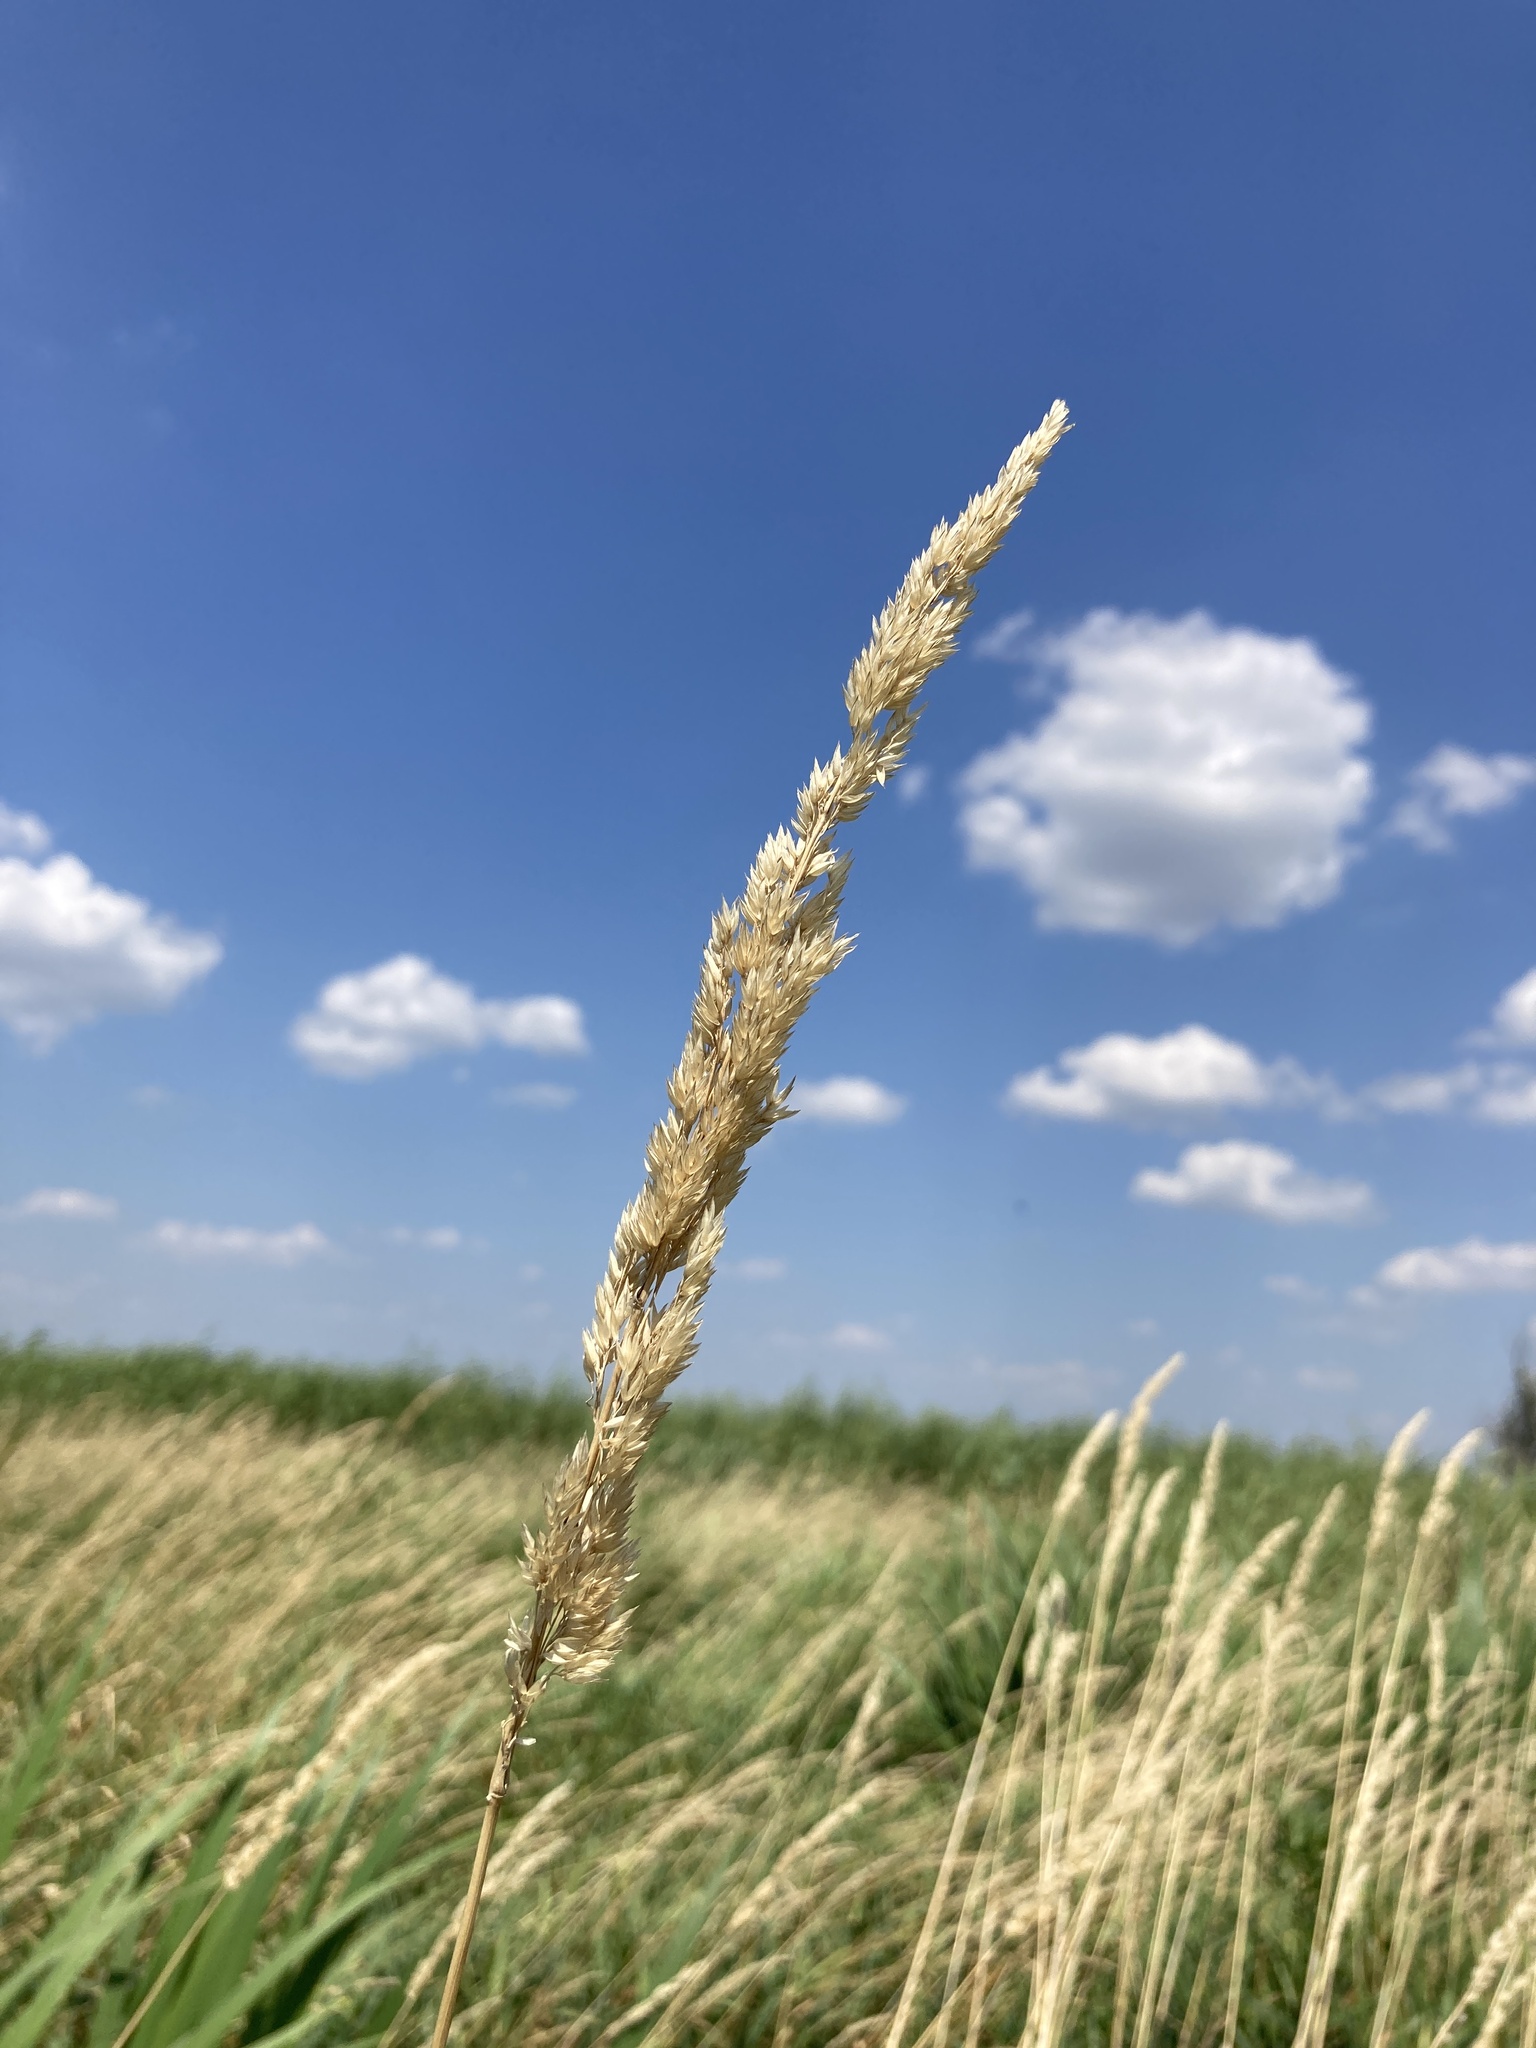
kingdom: Plantae
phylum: Tracheophyta
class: Liliopsida
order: Poales
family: Poaceae
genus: Phalaris
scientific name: Phalaris arundinacea
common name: Reed canary-grass
